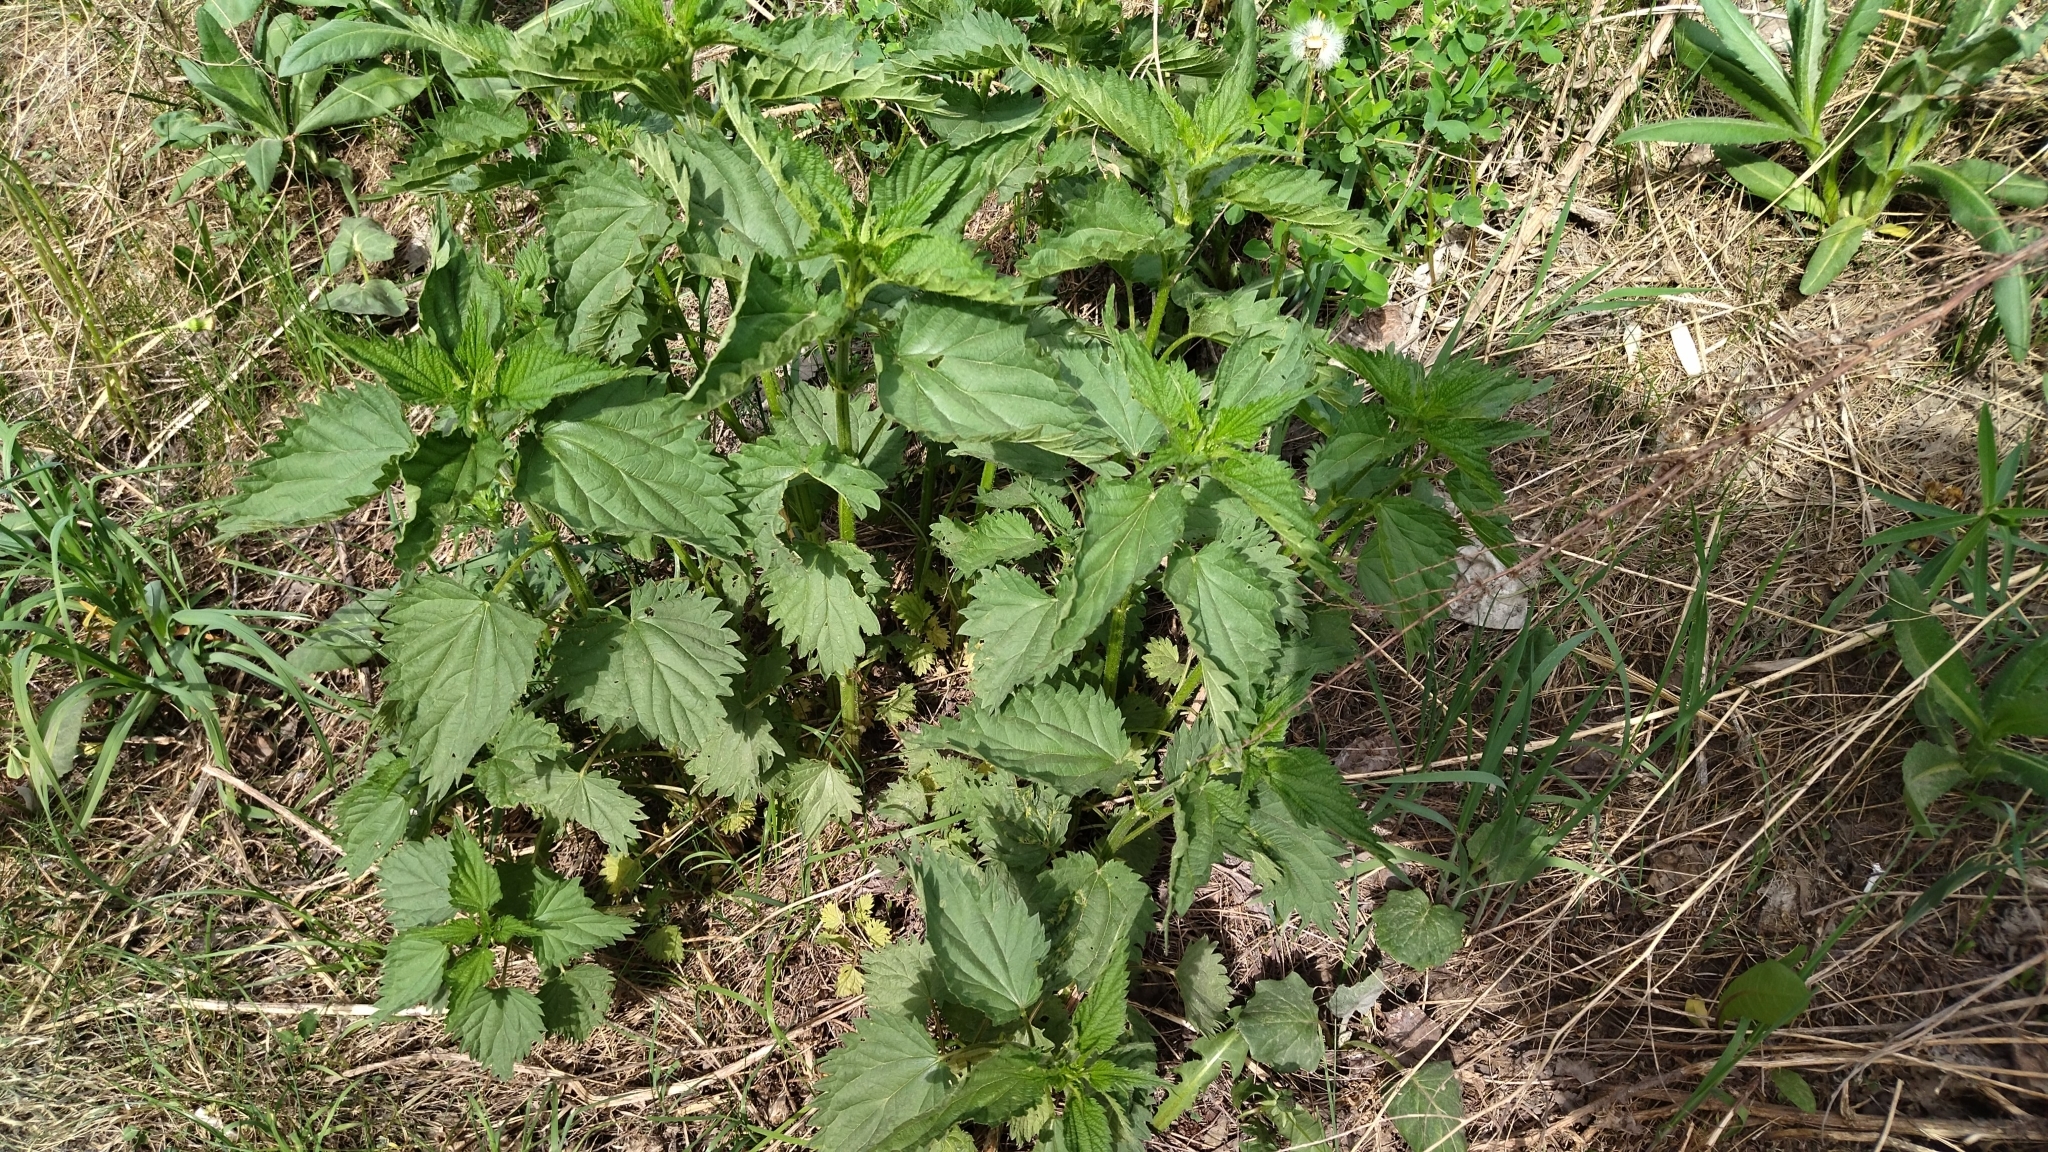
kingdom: Plantae
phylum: Tracheophyta
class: Magnoliopsida
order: Rosales
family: Urticaceae
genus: Urtica
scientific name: Urtica dioica
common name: Common nettle
